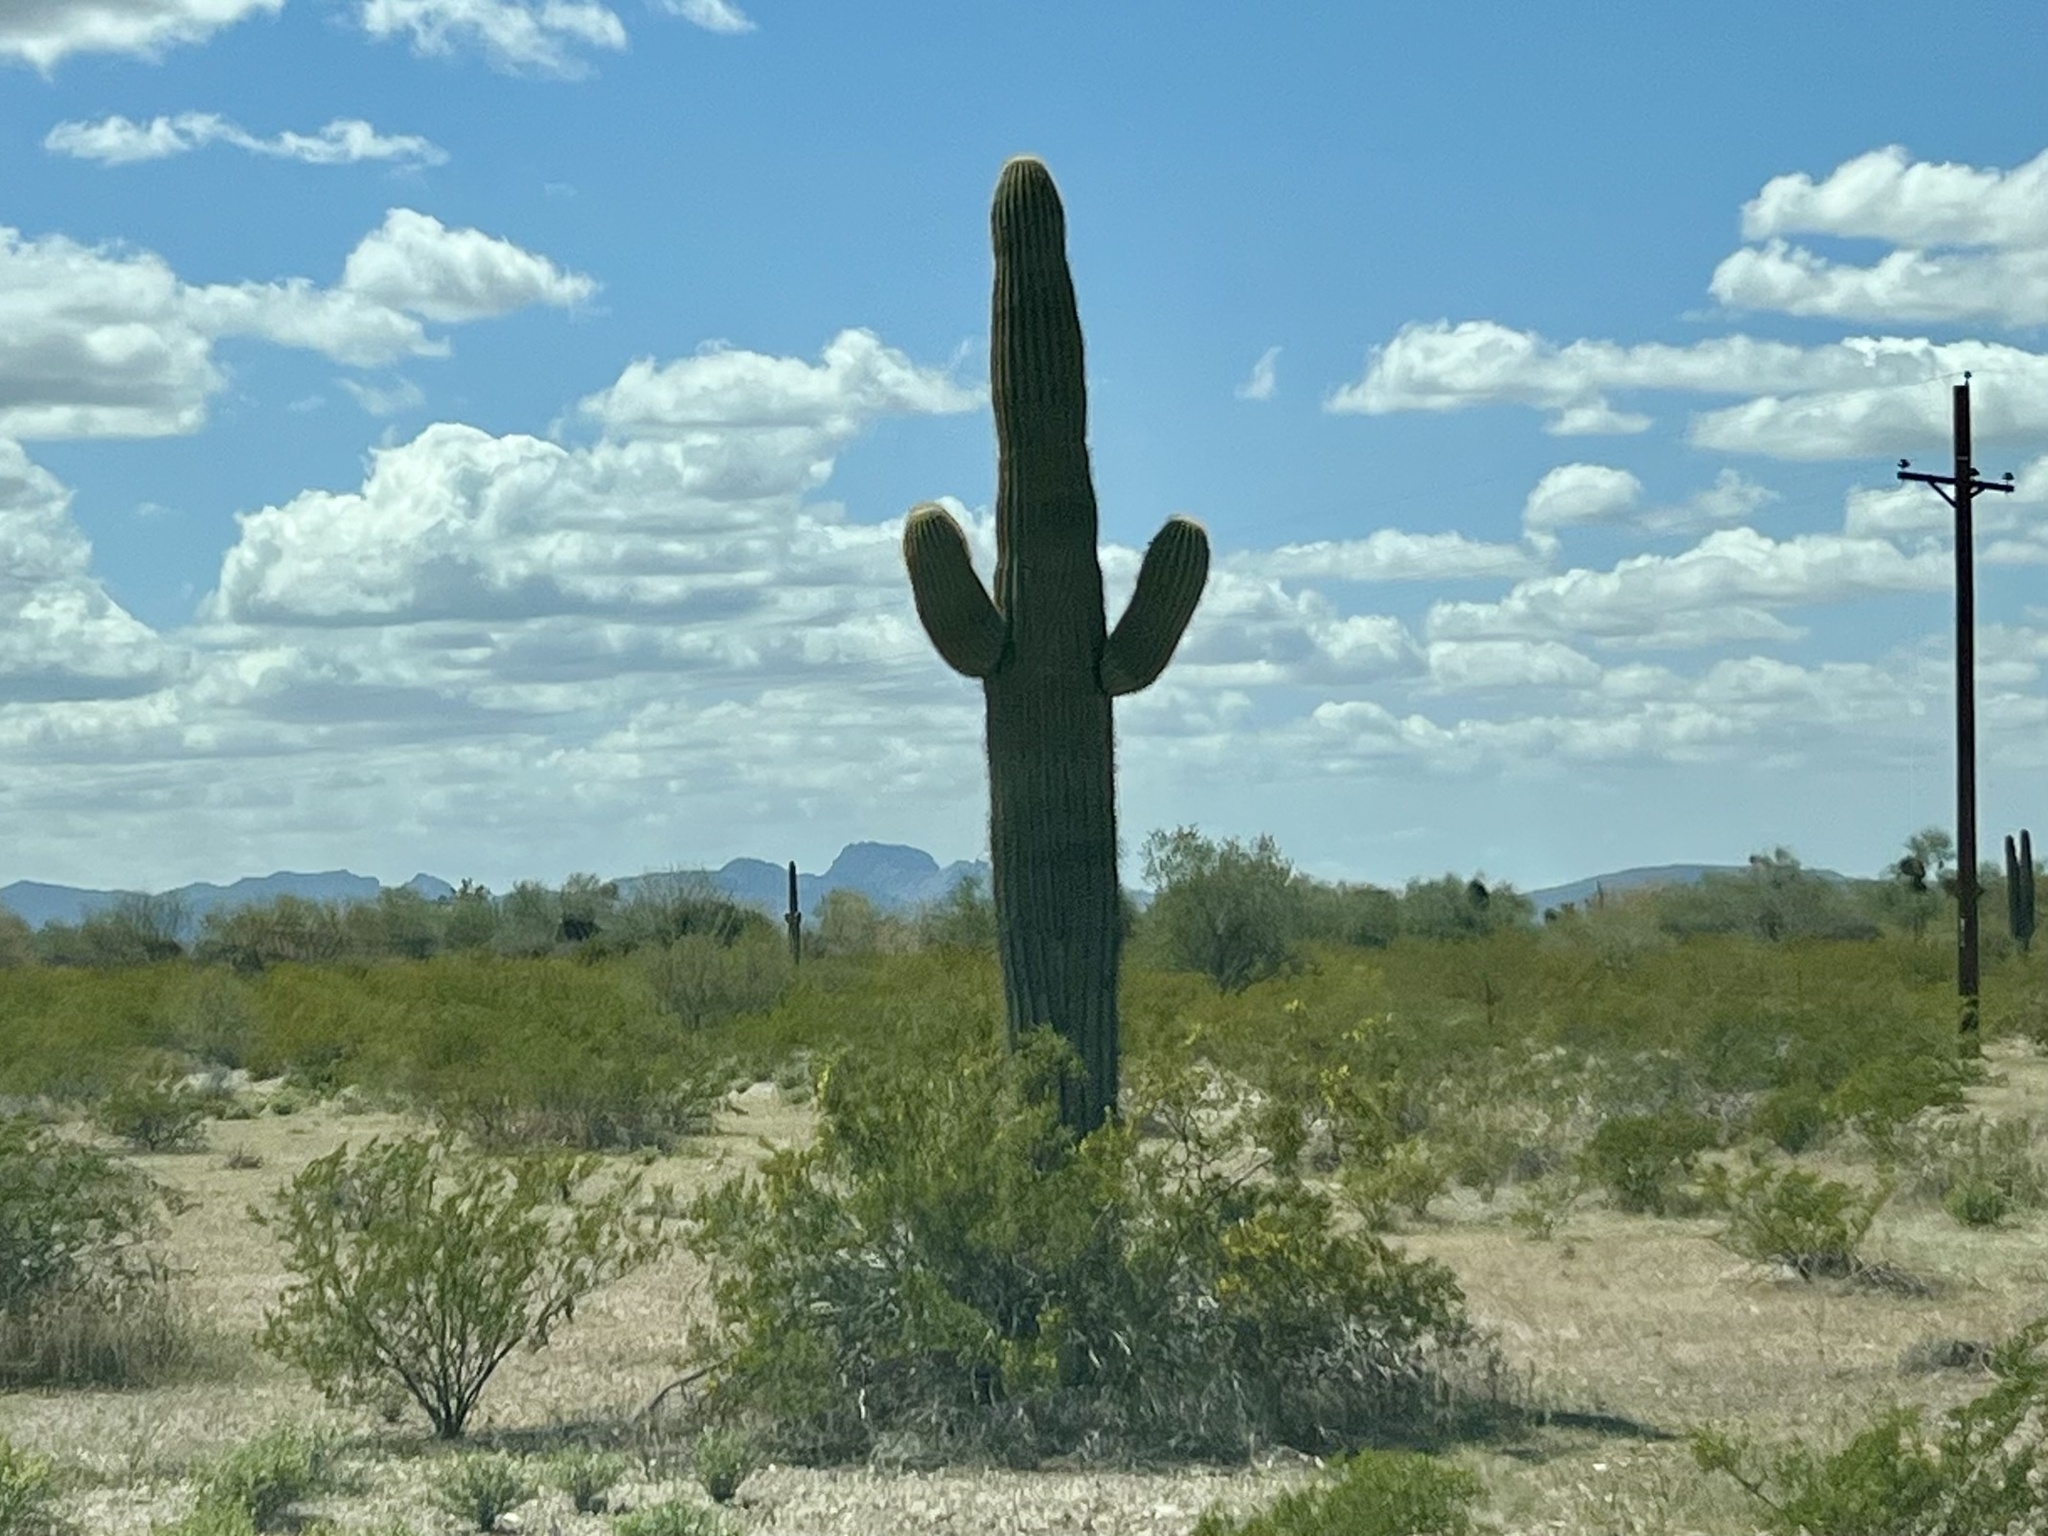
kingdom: Plantae
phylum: Tracheophyta
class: Magnoliopsida
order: Caryophyllales
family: Cactaceae
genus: Carnegiea
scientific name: Carnegiea gigantea
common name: Saguaro
